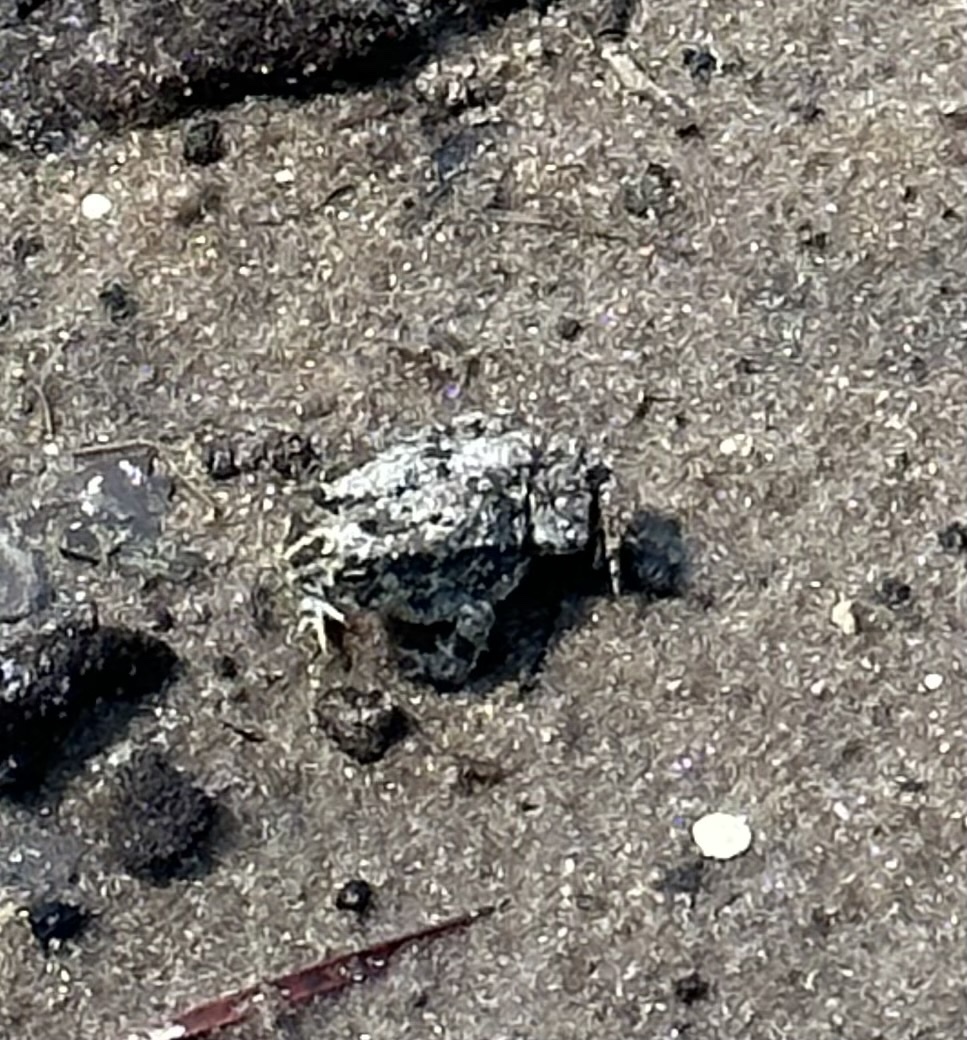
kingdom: Animalia
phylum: Chordata
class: Amphibia
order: Anura
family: Bufonidae
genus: Anaxyrus
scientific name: Anaxyrus quercicus
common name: Oak toad
